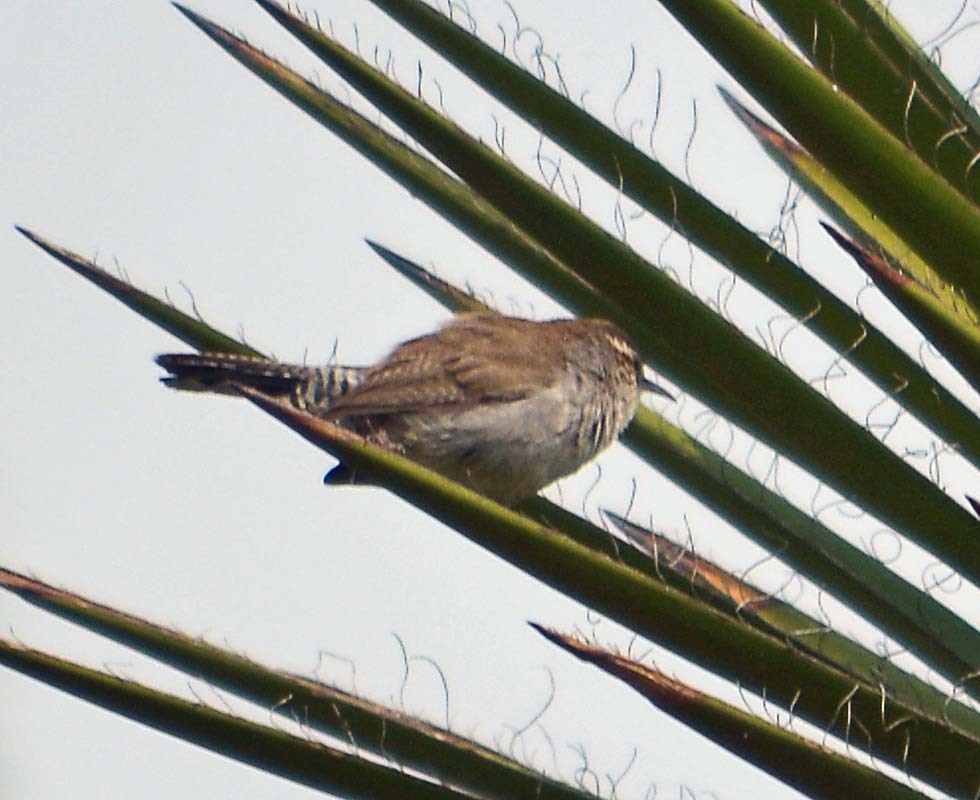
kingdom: Animalia
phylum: Chordata
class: Aves
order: Passeriformes
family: Troglodytidae
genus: Thryomanes
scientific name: Thryomanes bewickii
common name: Bewick's wren
